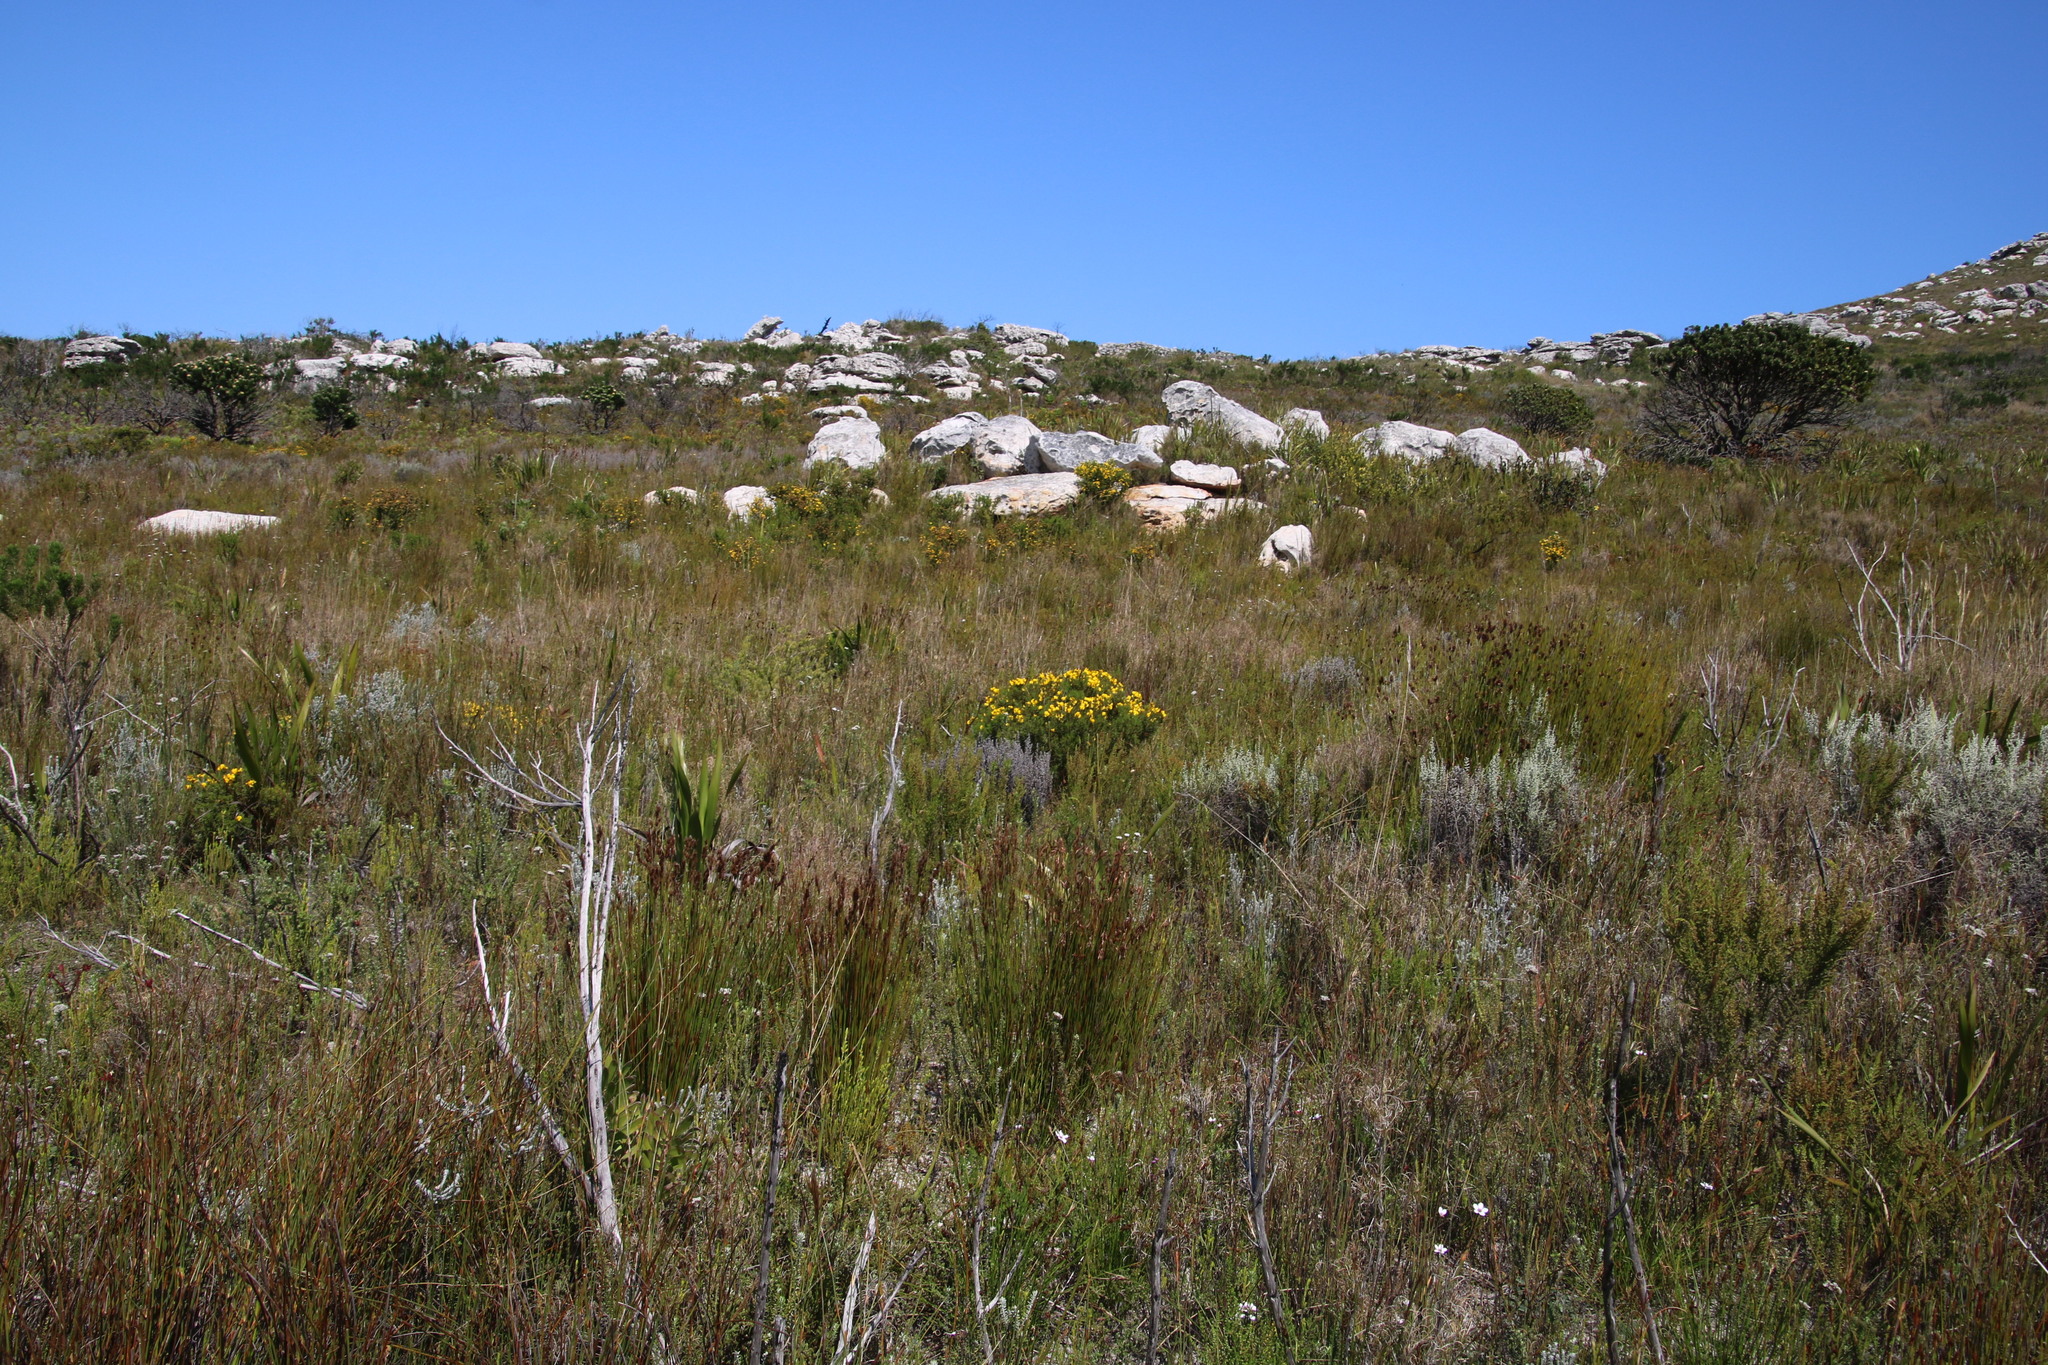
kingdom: Plantae
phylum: Tracheophyta
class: Magnoliopsida
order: Fabales
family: Fabaceae
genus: Cyclopia
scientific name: Cyclopia genistoides
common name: Honeybush tea
